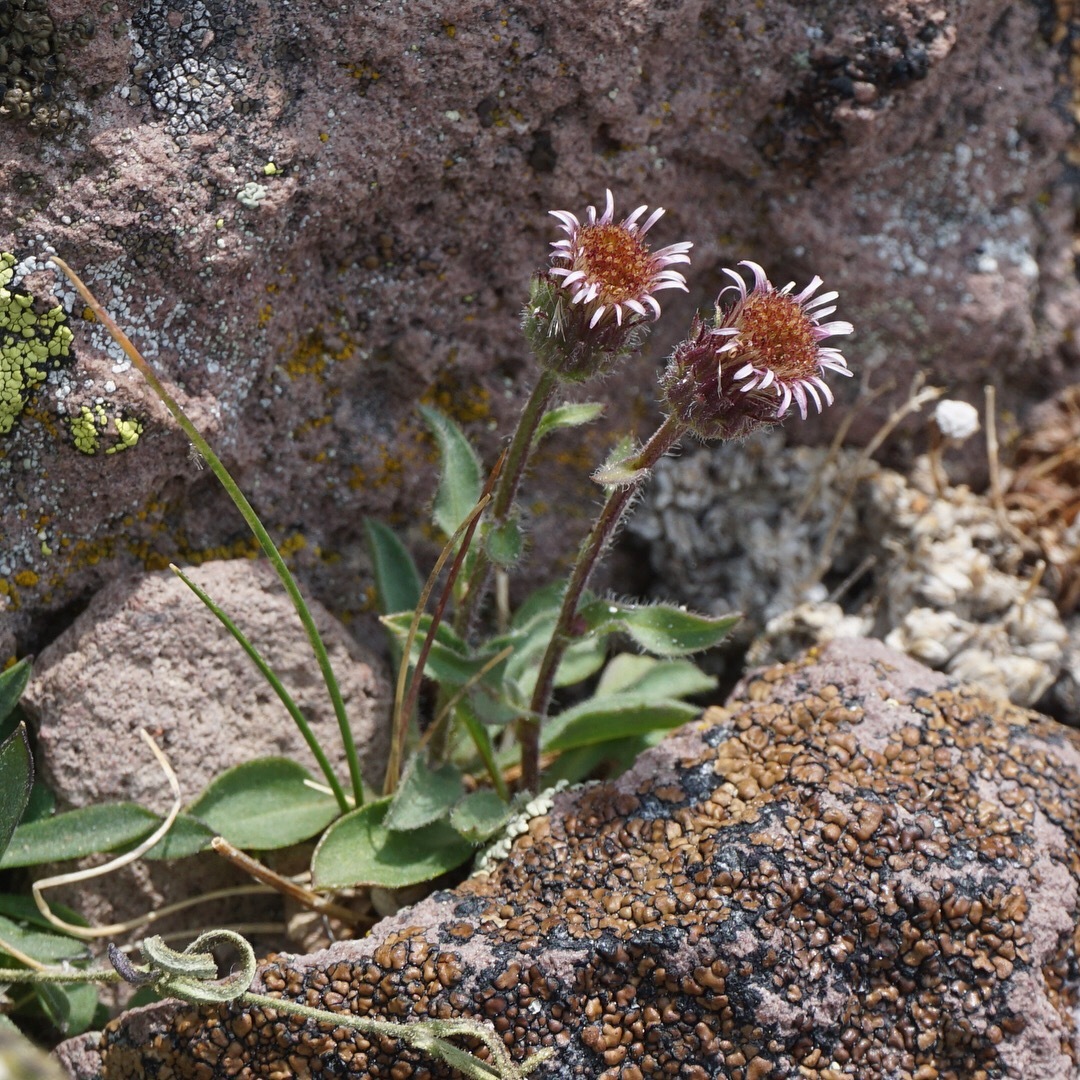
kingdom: Plantae
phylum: Tracheophyta
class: Magnoliopsida
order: Asterales
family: Asteraceae
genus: Erigeron
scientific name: Erigeron nivalis
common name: Snow fleabane
